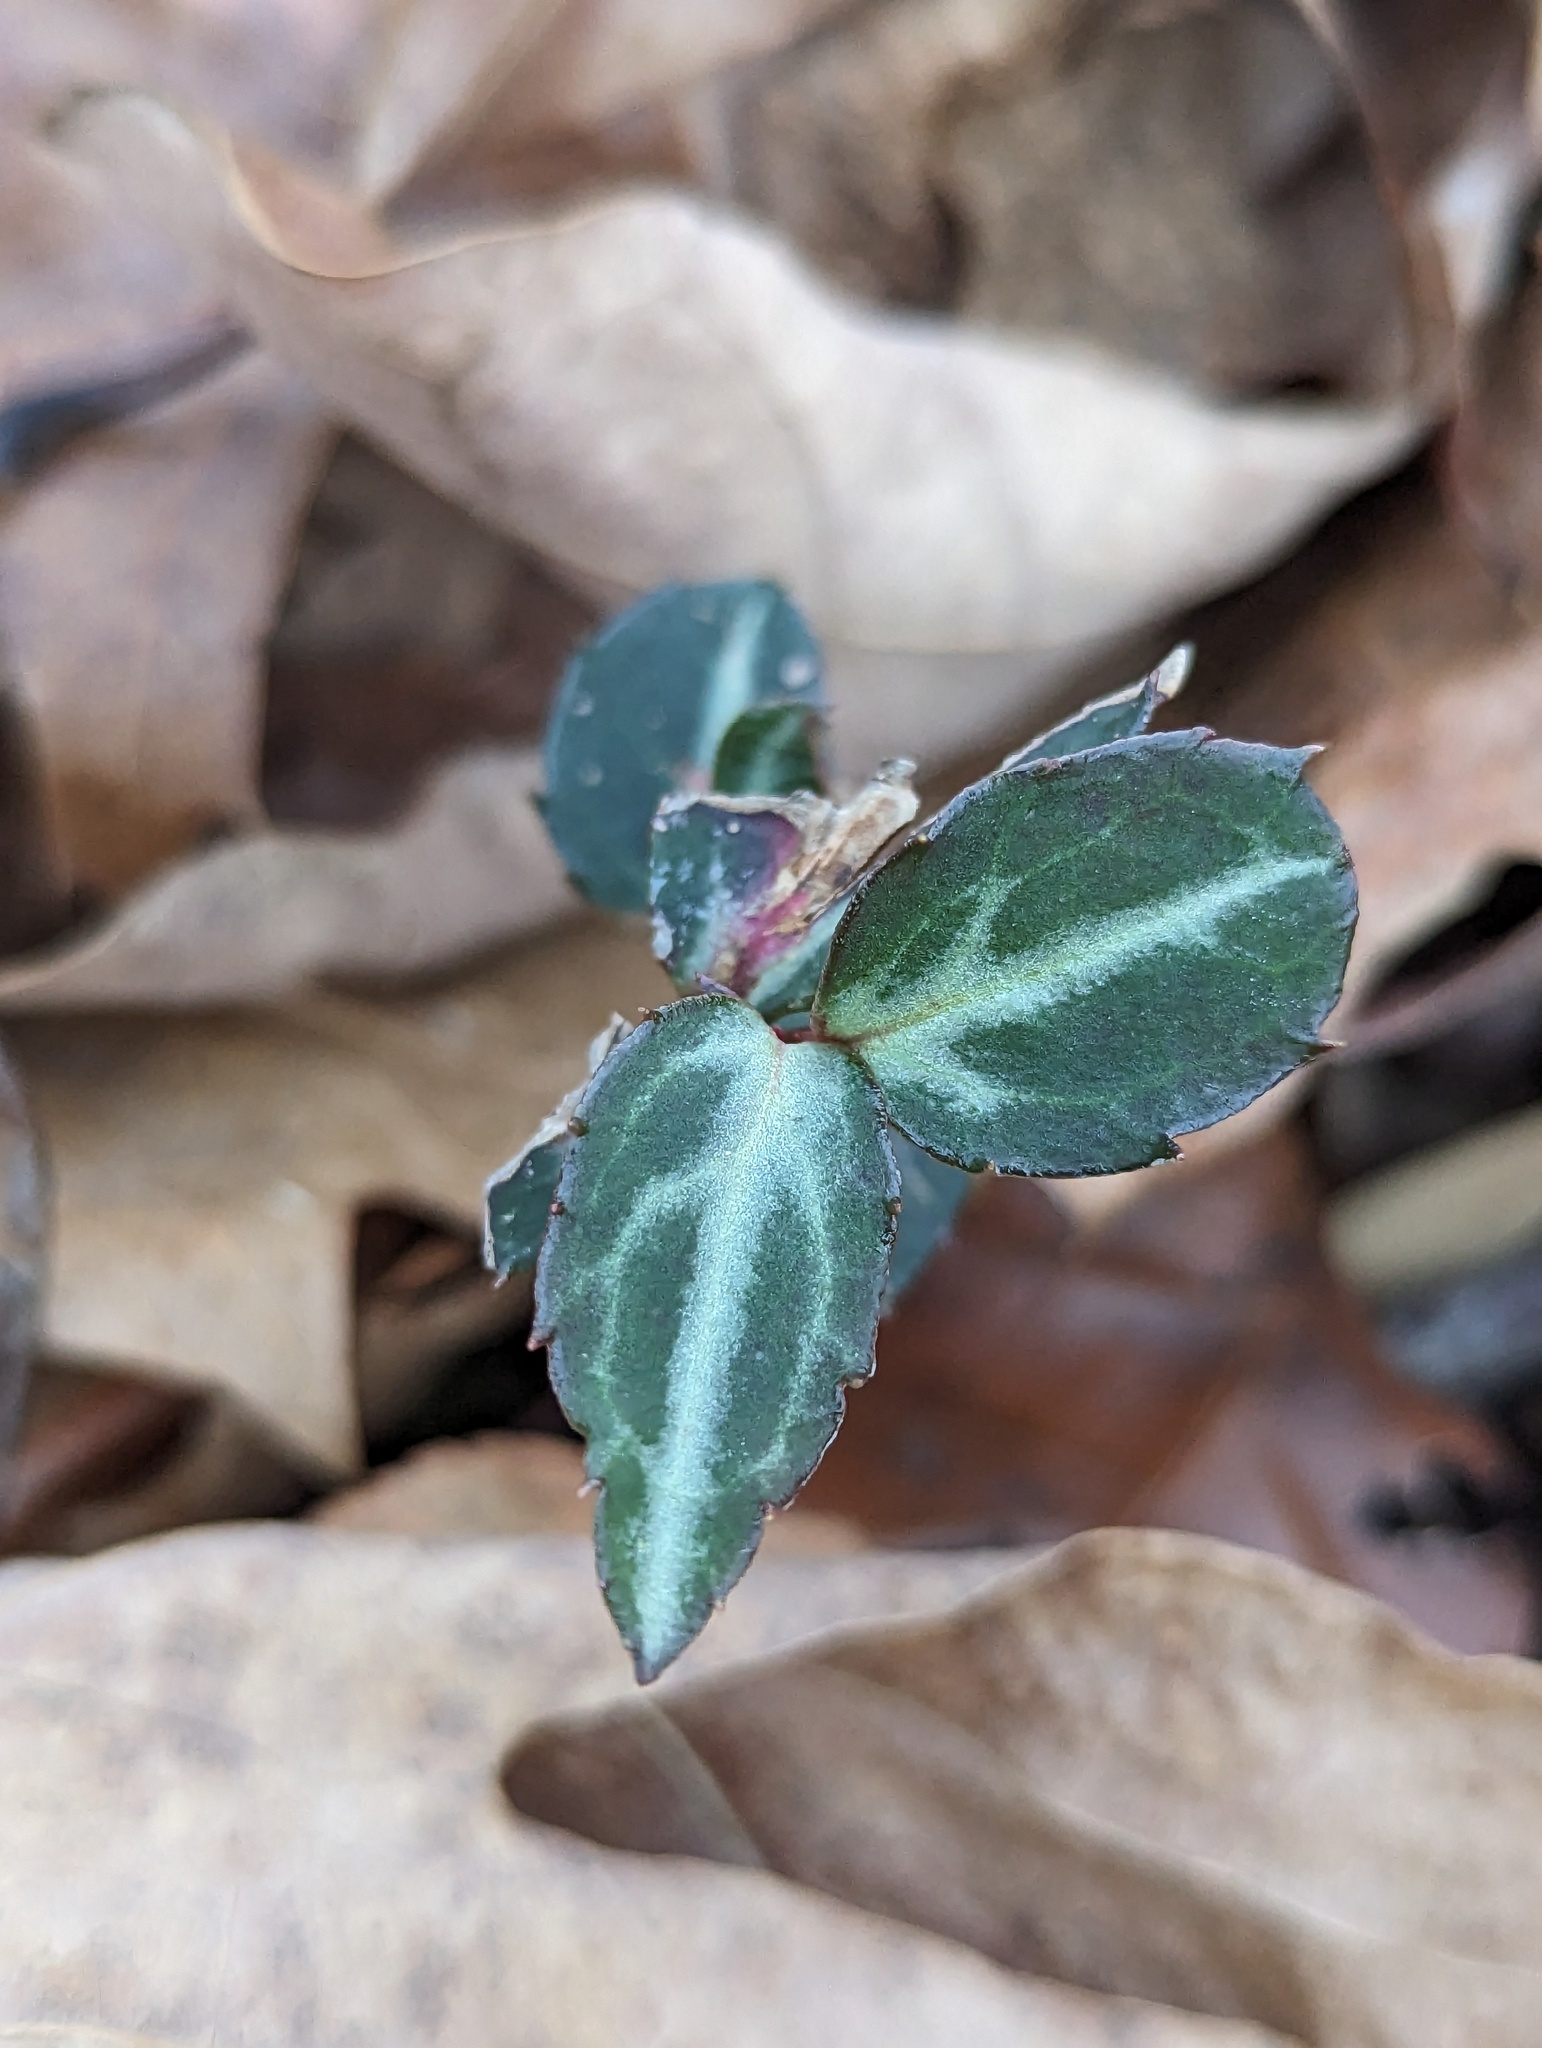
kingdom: Plantae
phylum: Tracheophyta
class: Magnoliopsida
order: Ericales
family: Ericaceae
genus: Chimaphila
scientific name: Chimaphila maculata
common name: Spotted pipsissewa
